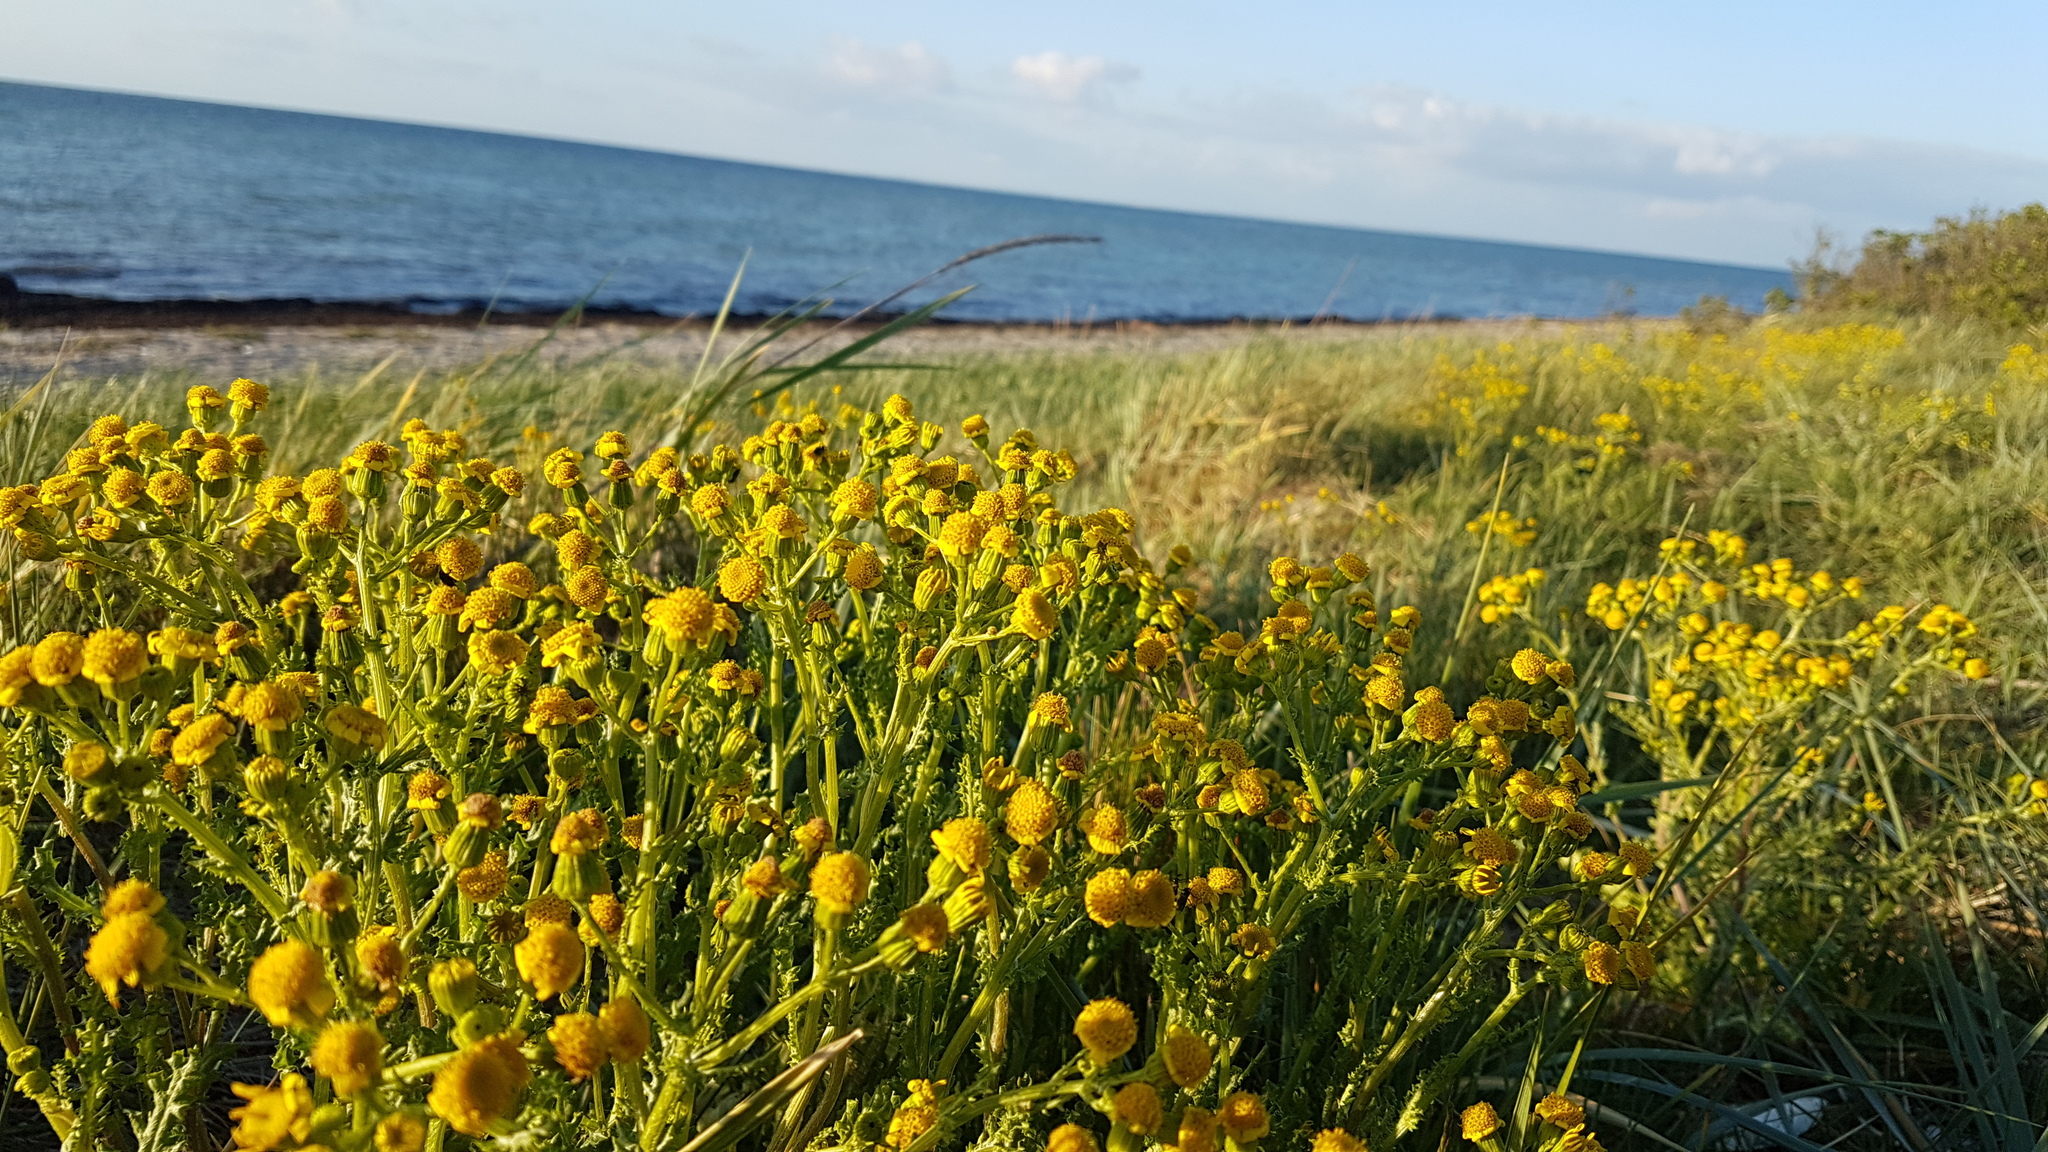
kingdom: Plantae
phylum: Tracheophyta
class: Magnoliopsida
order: Asterales
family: Asteraceae
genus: Senecio
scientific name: Senecio vernalis
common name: Eastern groundsel
